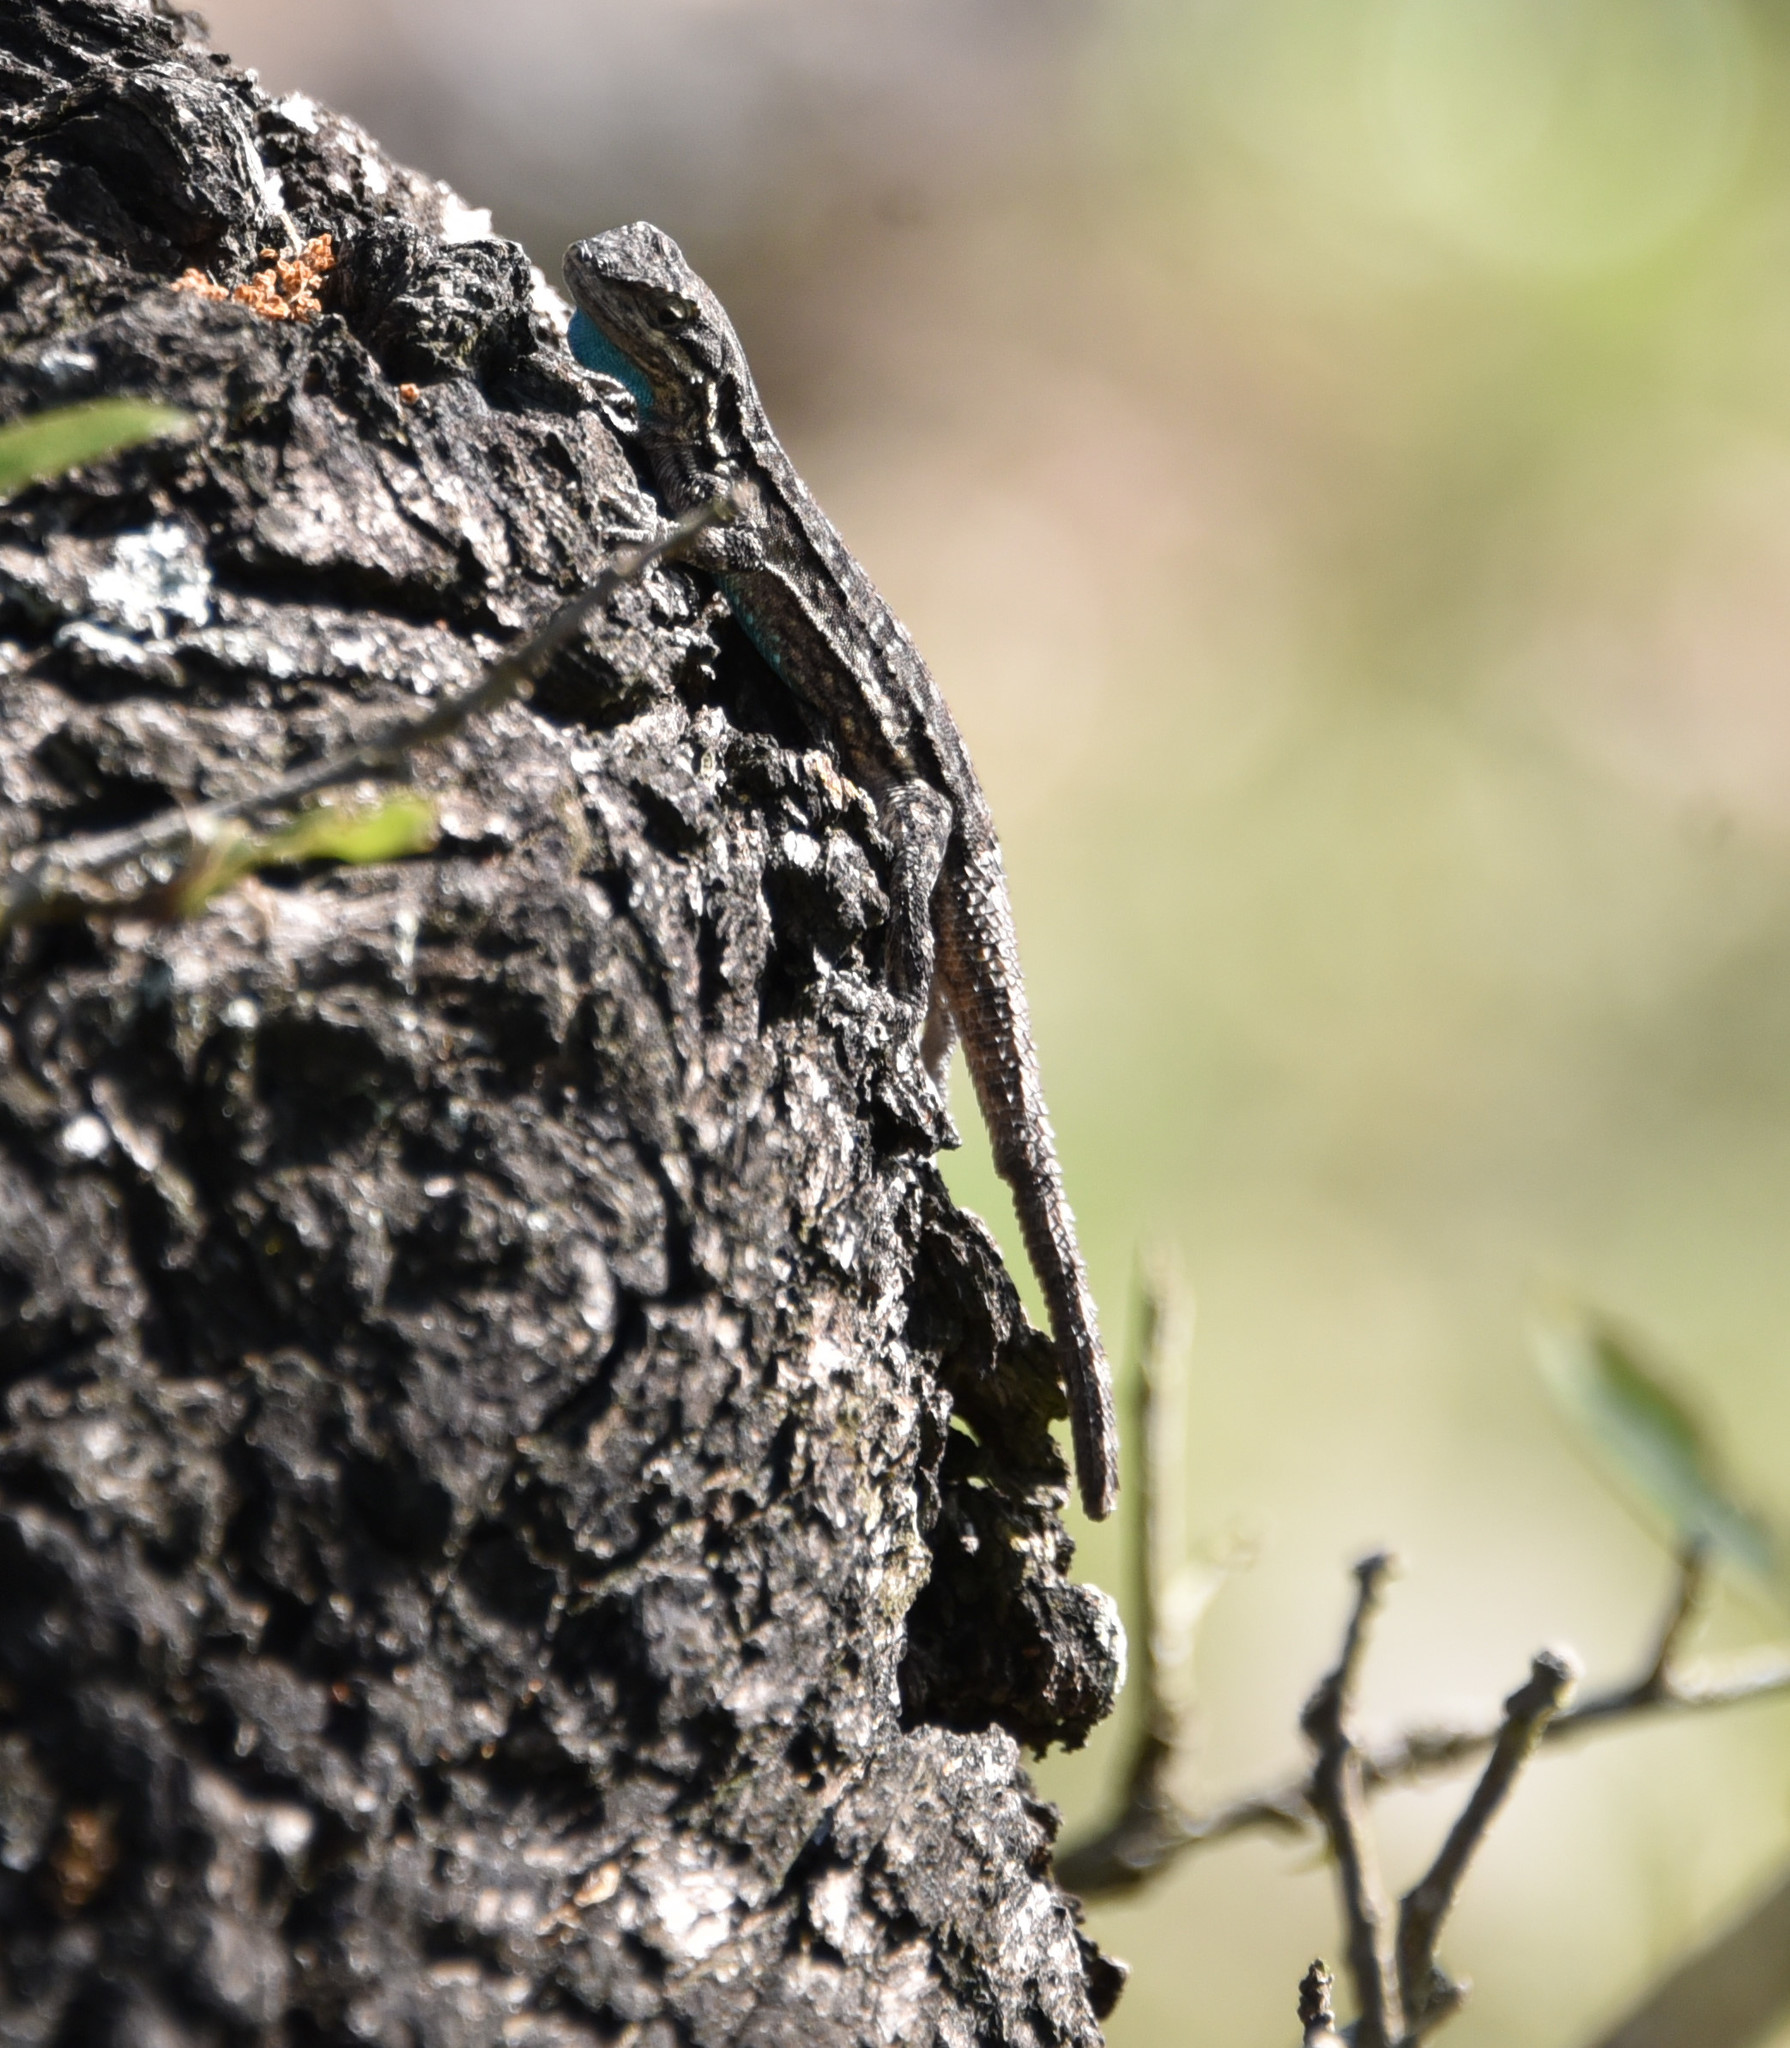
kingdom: Animalia
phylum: Chordata
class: Squamata
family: Phrynosomatidae
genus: Urosaurus
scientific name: Urosaurus ornatus
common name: Ornate tree lizard
